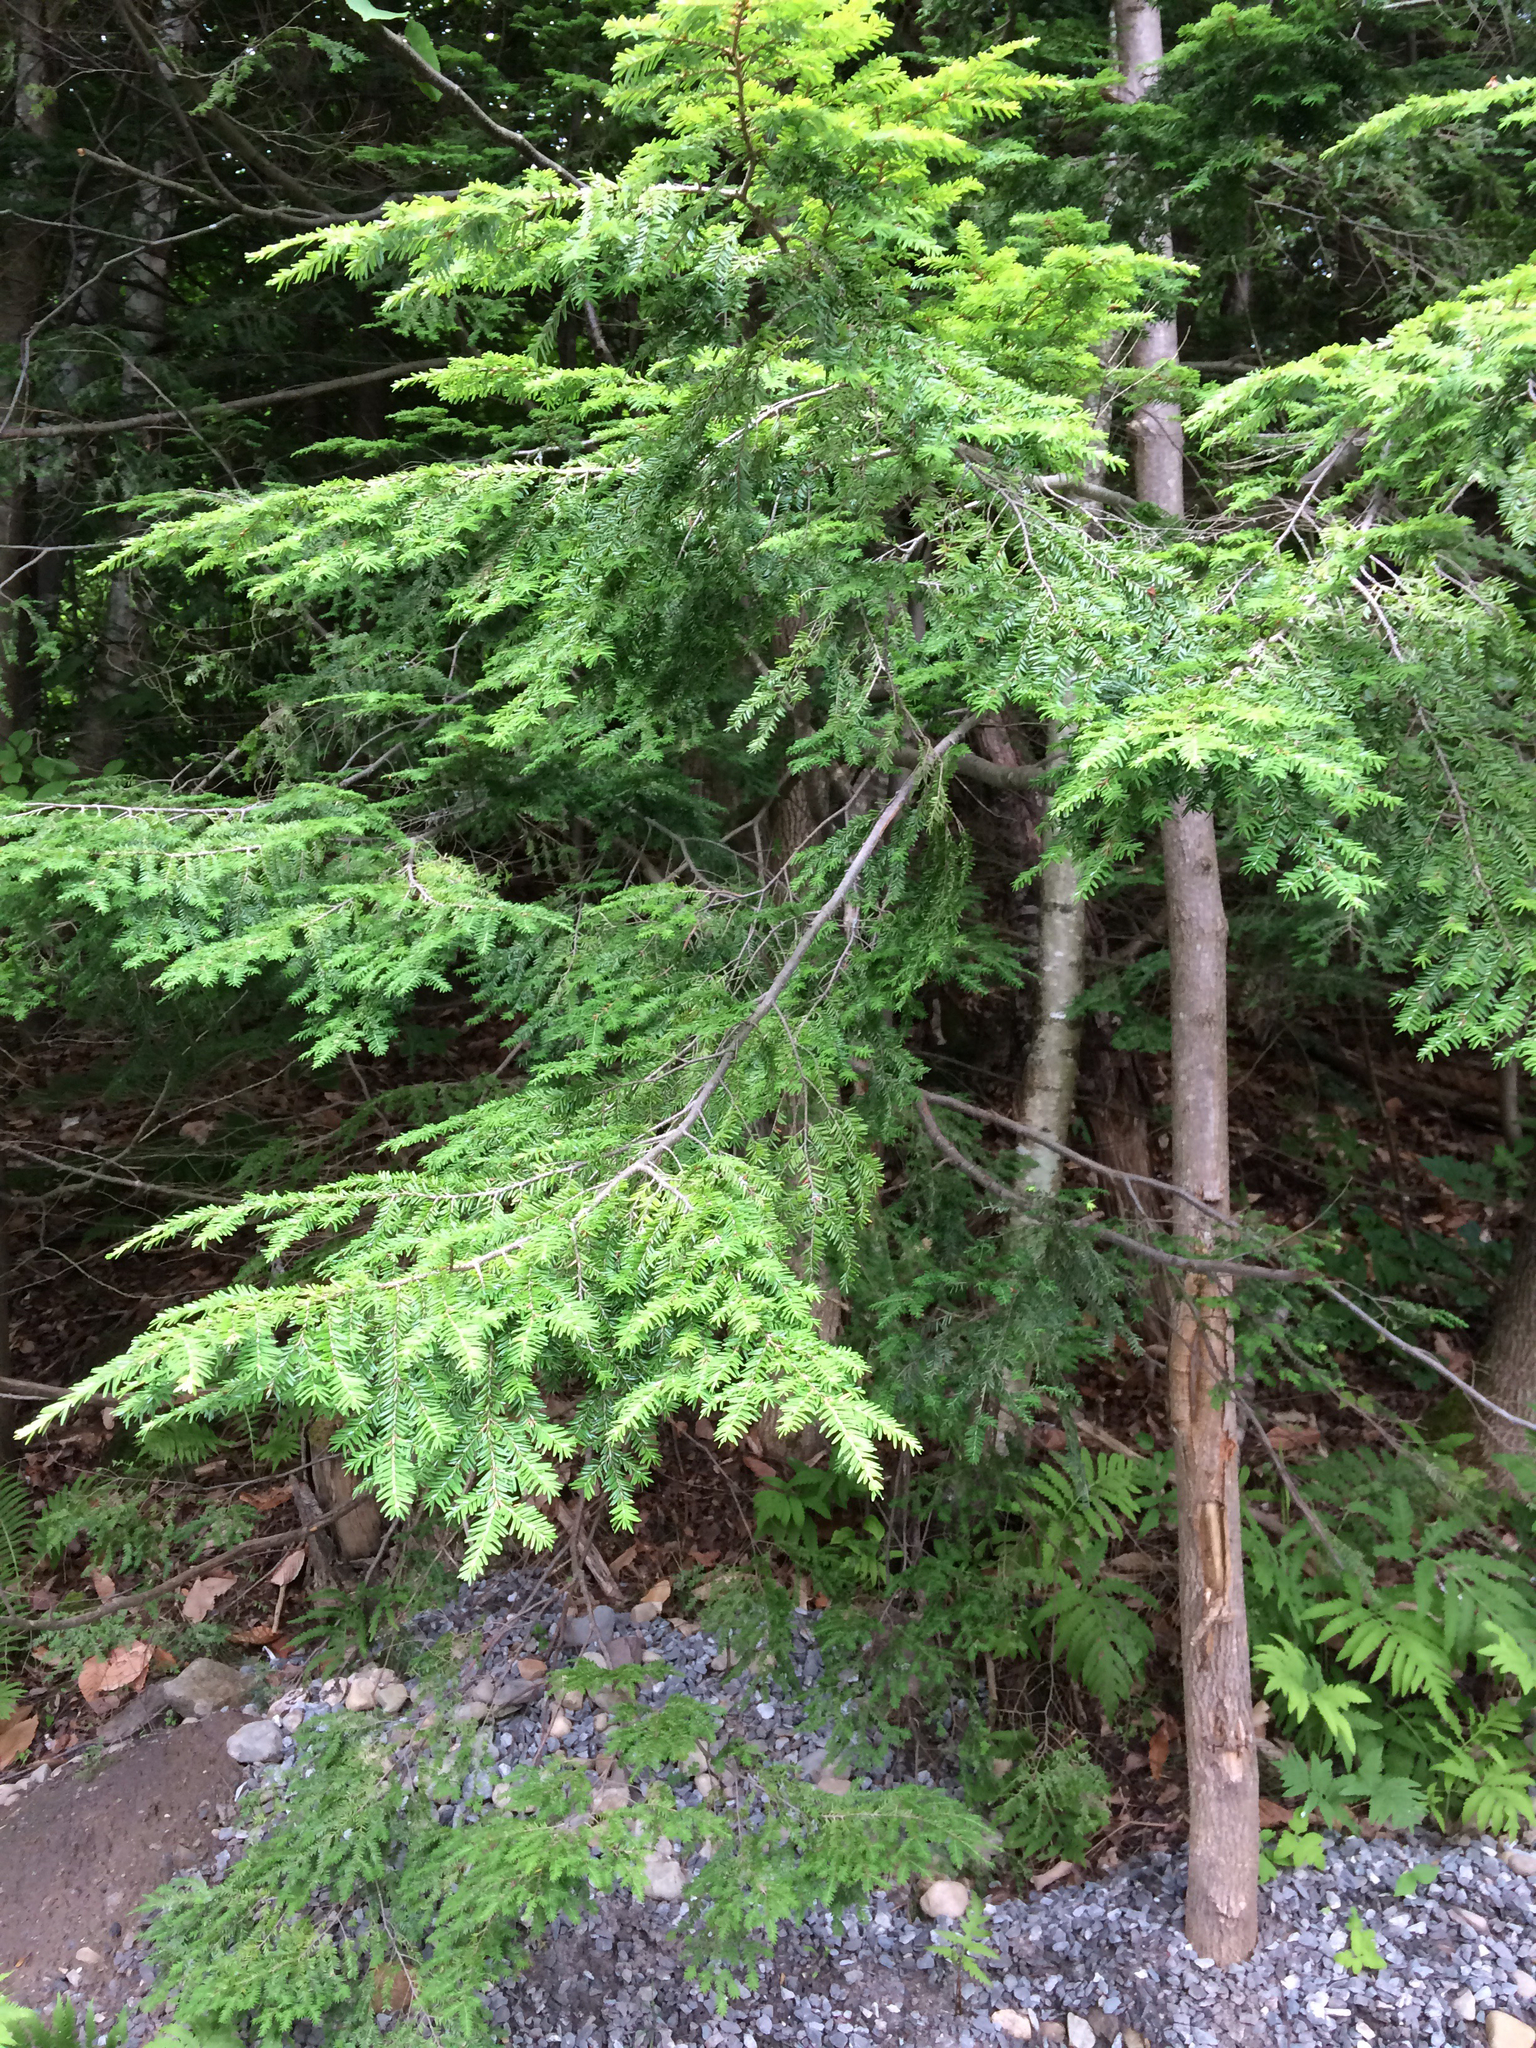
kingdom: Plantae
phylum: Tracheophyta
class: Pinopsida
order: Pinales
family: Pinaceae
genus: Tsuga
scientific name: Tsuga canadensis
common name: Eastern hemlock
